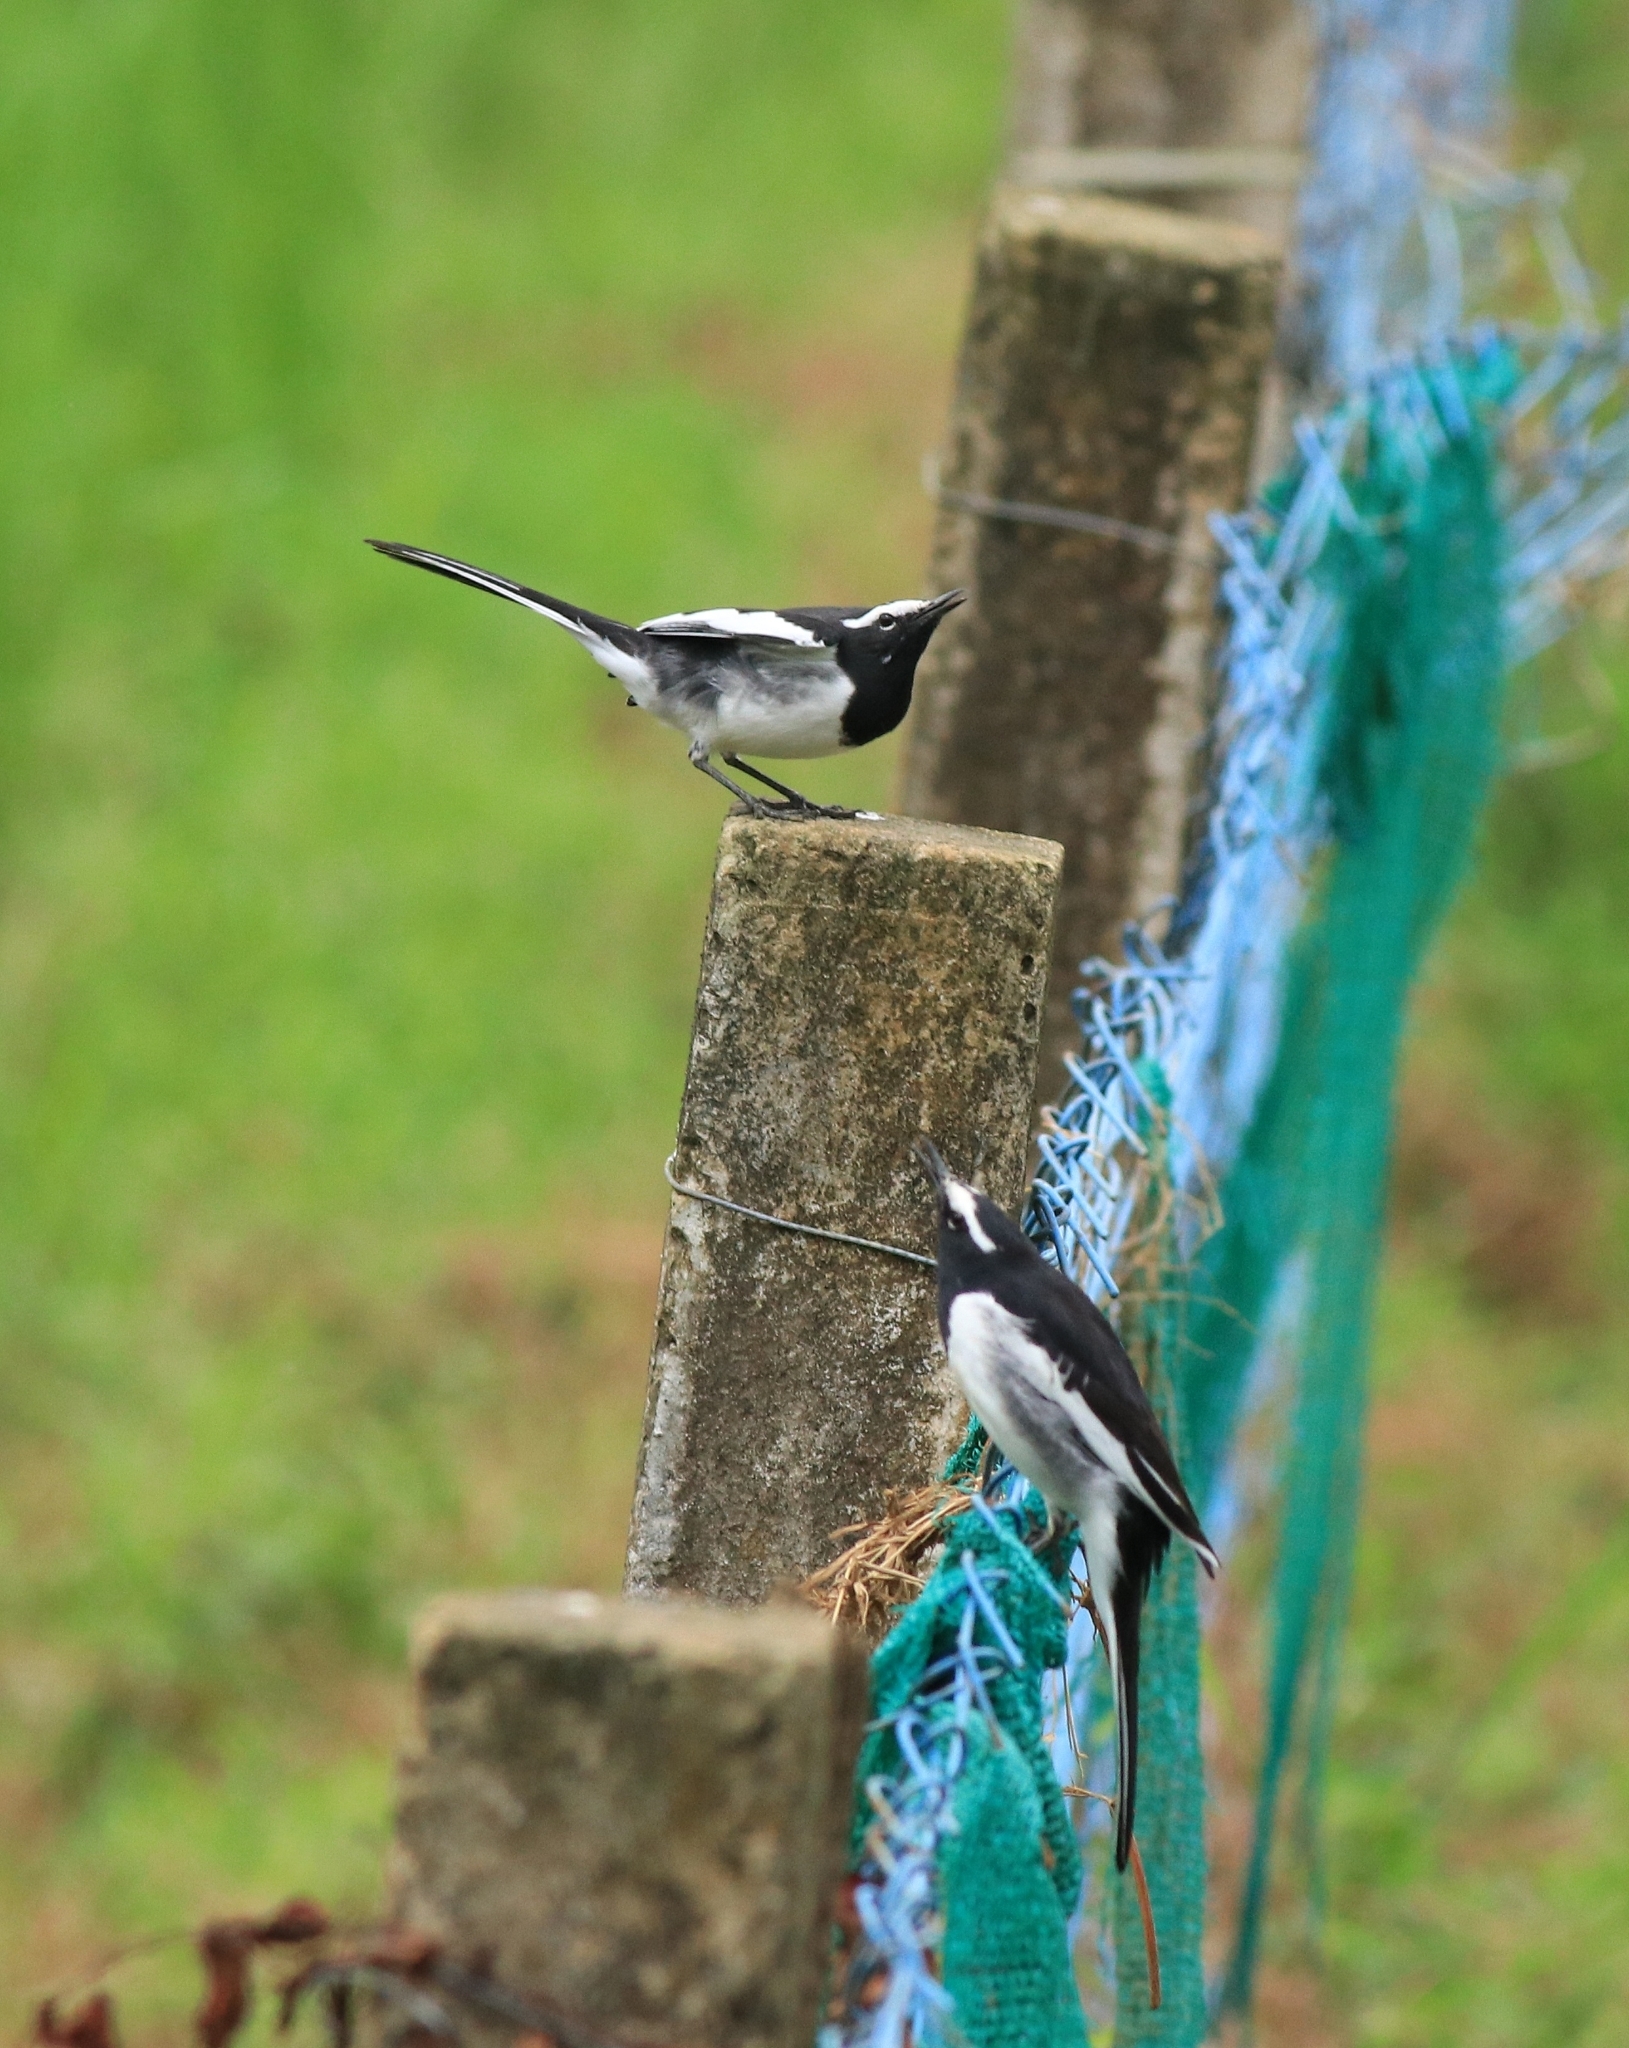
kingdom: Animalia
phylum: Chordata
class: Aves
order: Passeriformes
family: Motacillidae
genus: Motacilla
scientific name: Motacilla maderaspatensis
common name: White-browed wagtail
